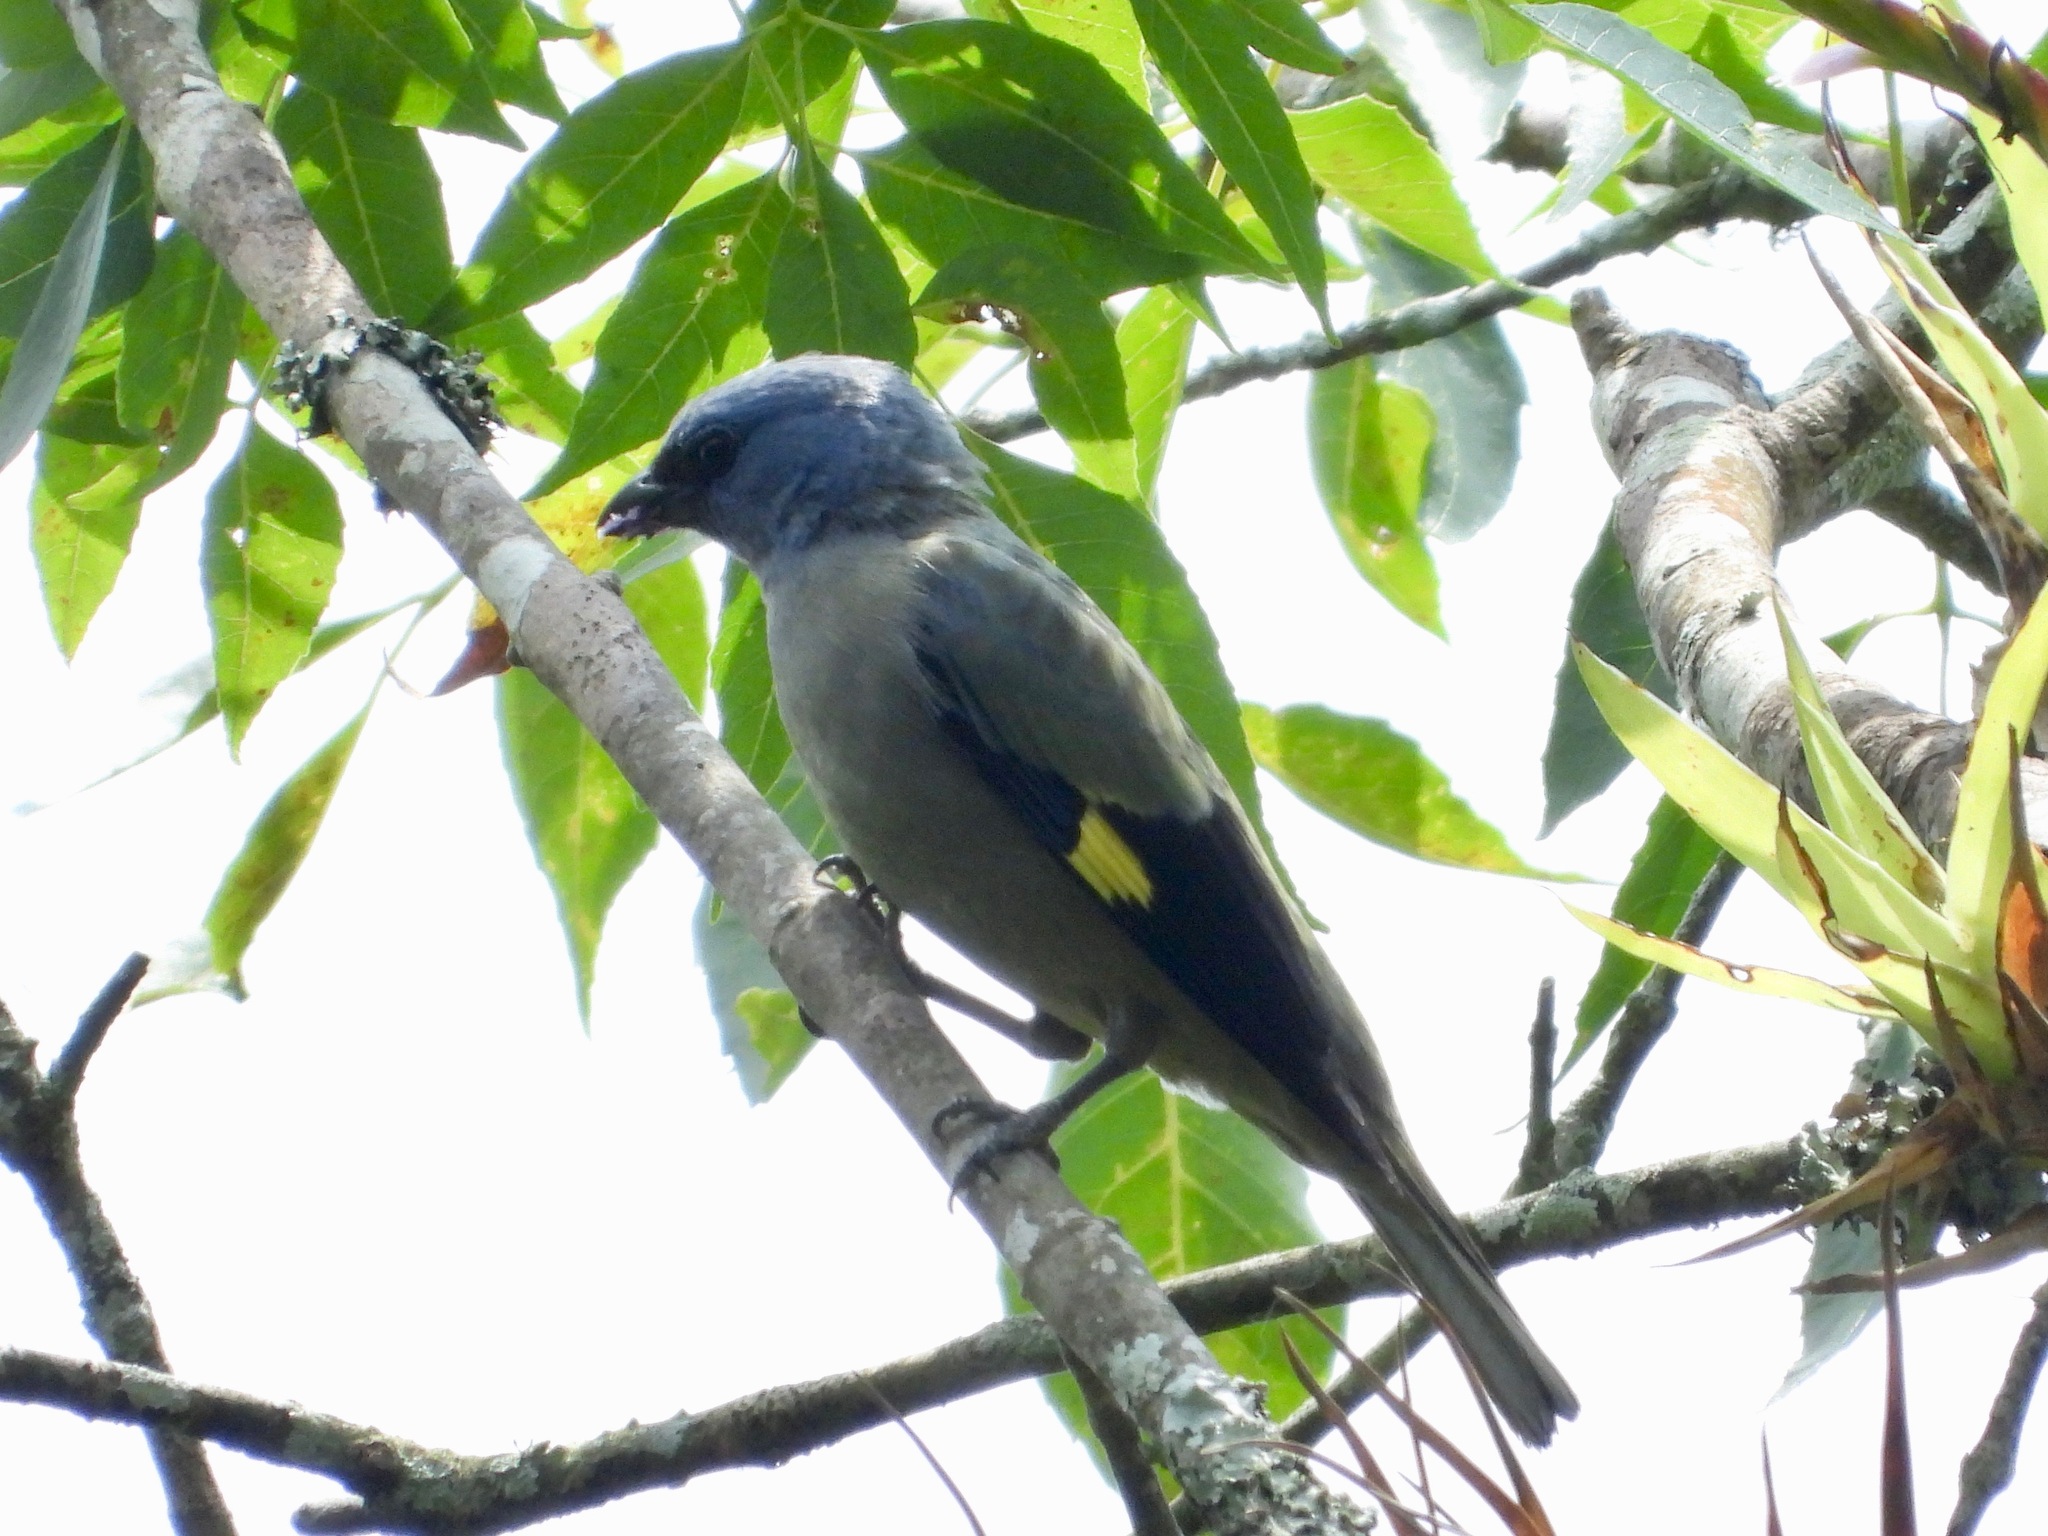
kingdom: Animalia
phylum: Chordata
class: Aves
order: Passeriformes
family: Thraupidae
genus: Thraupis
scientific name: Thraupis abbas
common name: Yellow-winged tanager
